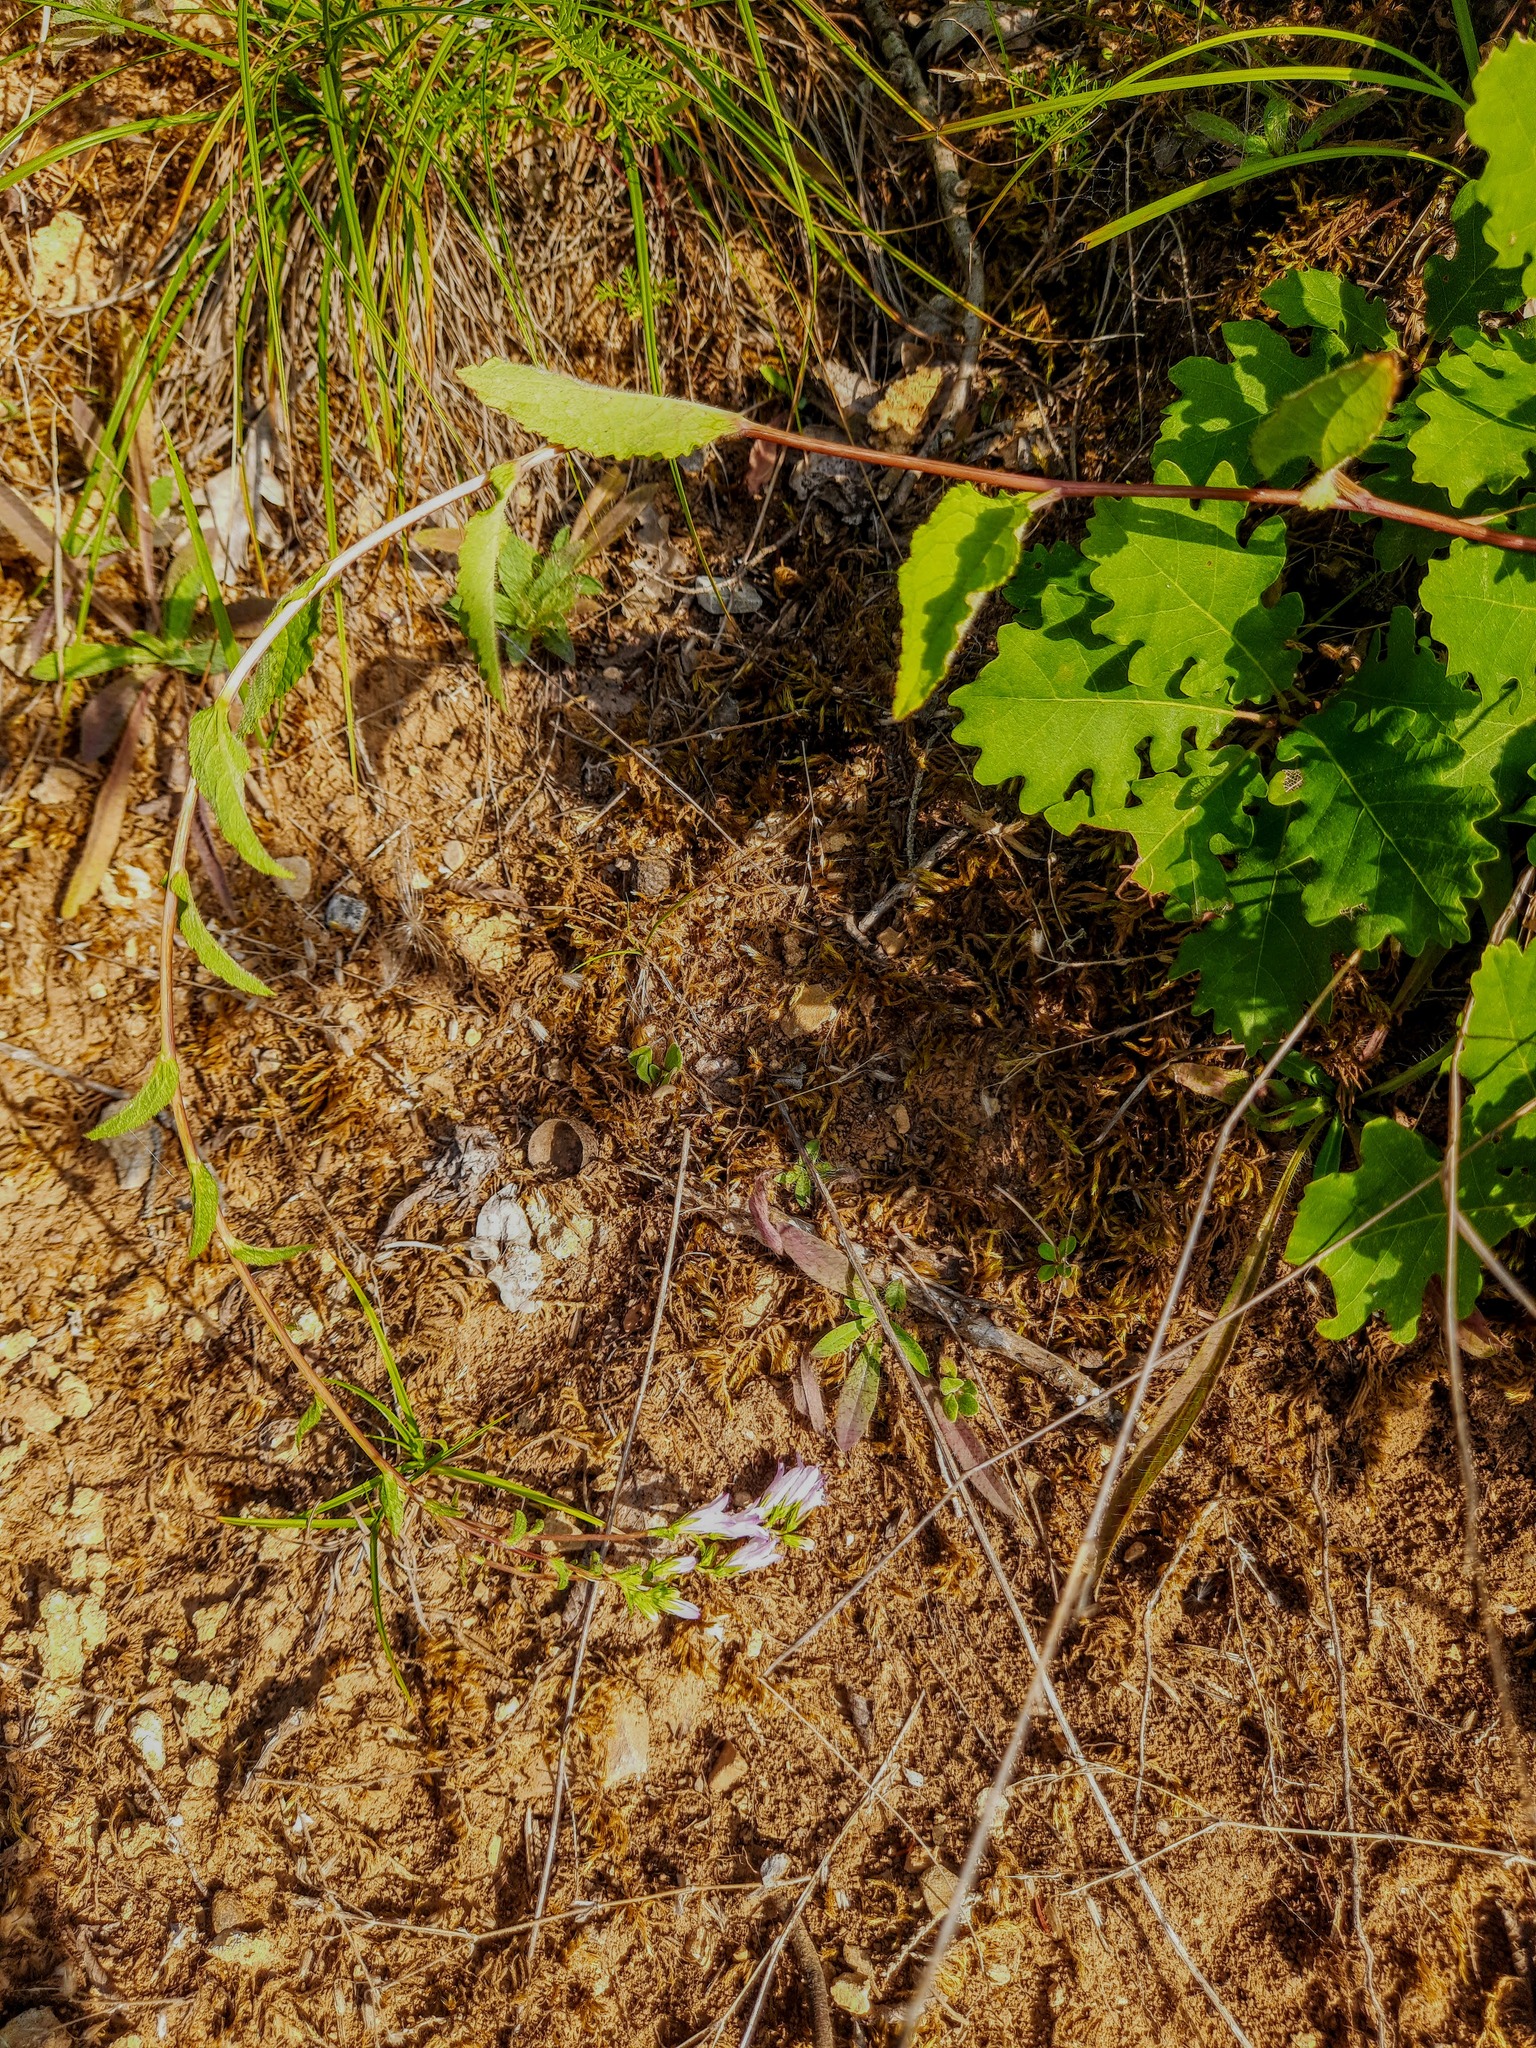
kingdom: Plantae
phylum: Tracheophyta
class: Magnoliopsida
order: Asterales
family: Campanulaceae
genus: Campanula
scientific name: Campanula bononiensis
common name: Pale bellflower
